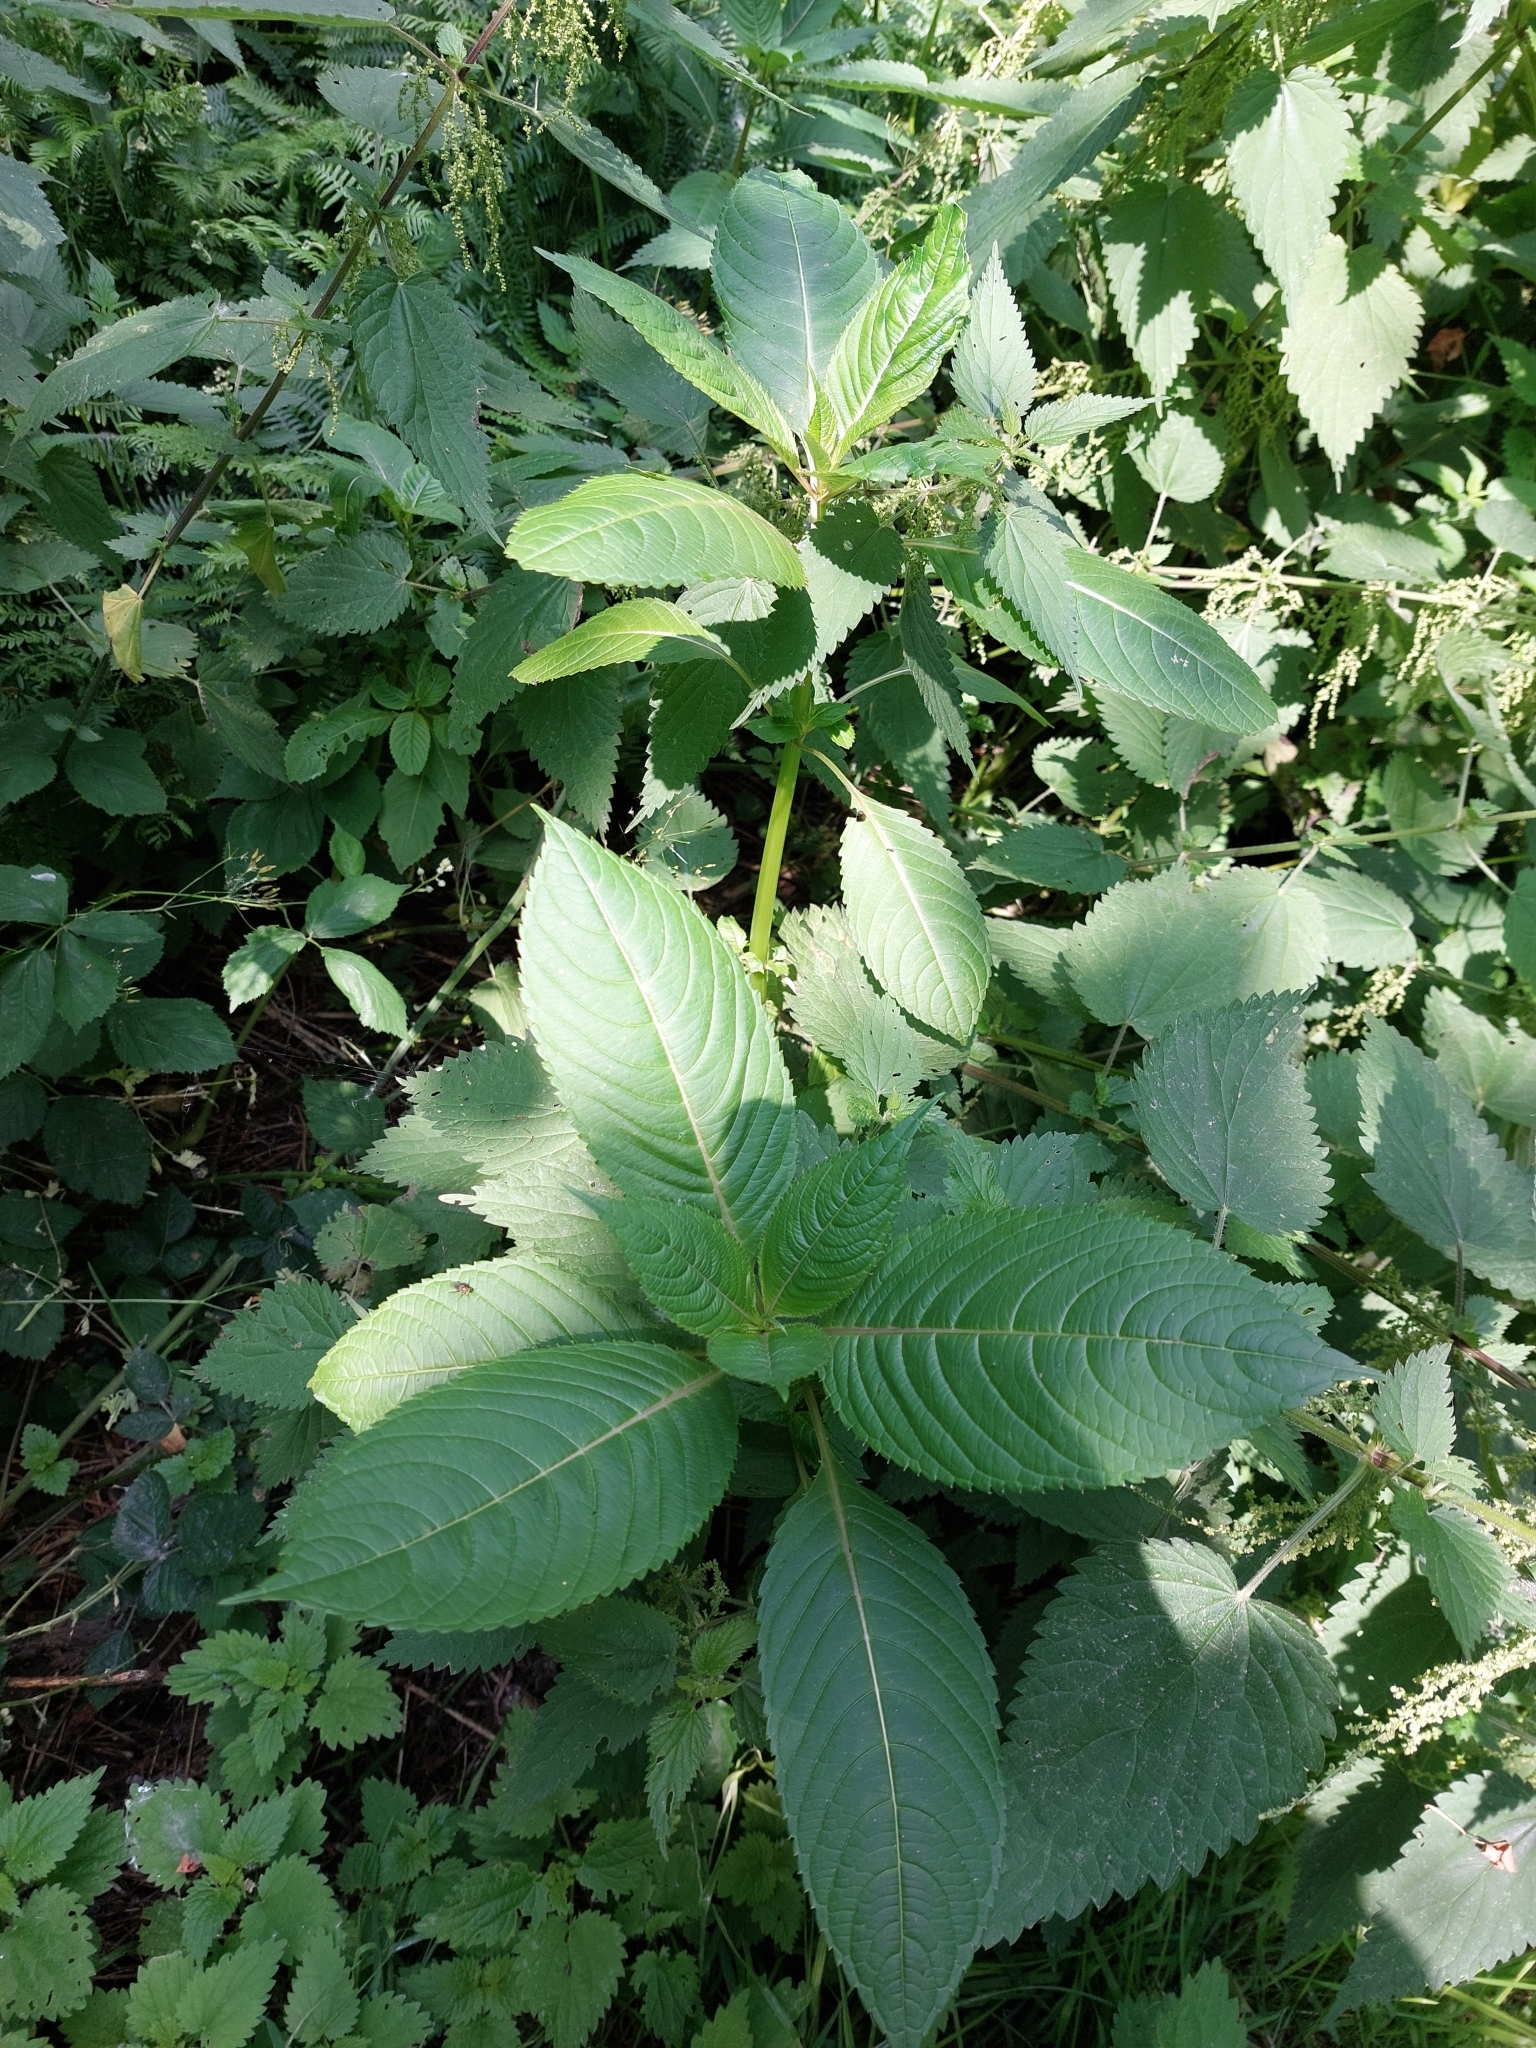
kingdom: Plantae
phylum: Tracheophyta
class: Magnoliopsida
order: Ericales
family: Balsaminaceae
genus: Impatiens
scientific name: Impatiens glandulifera
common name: Himalayan balsam
